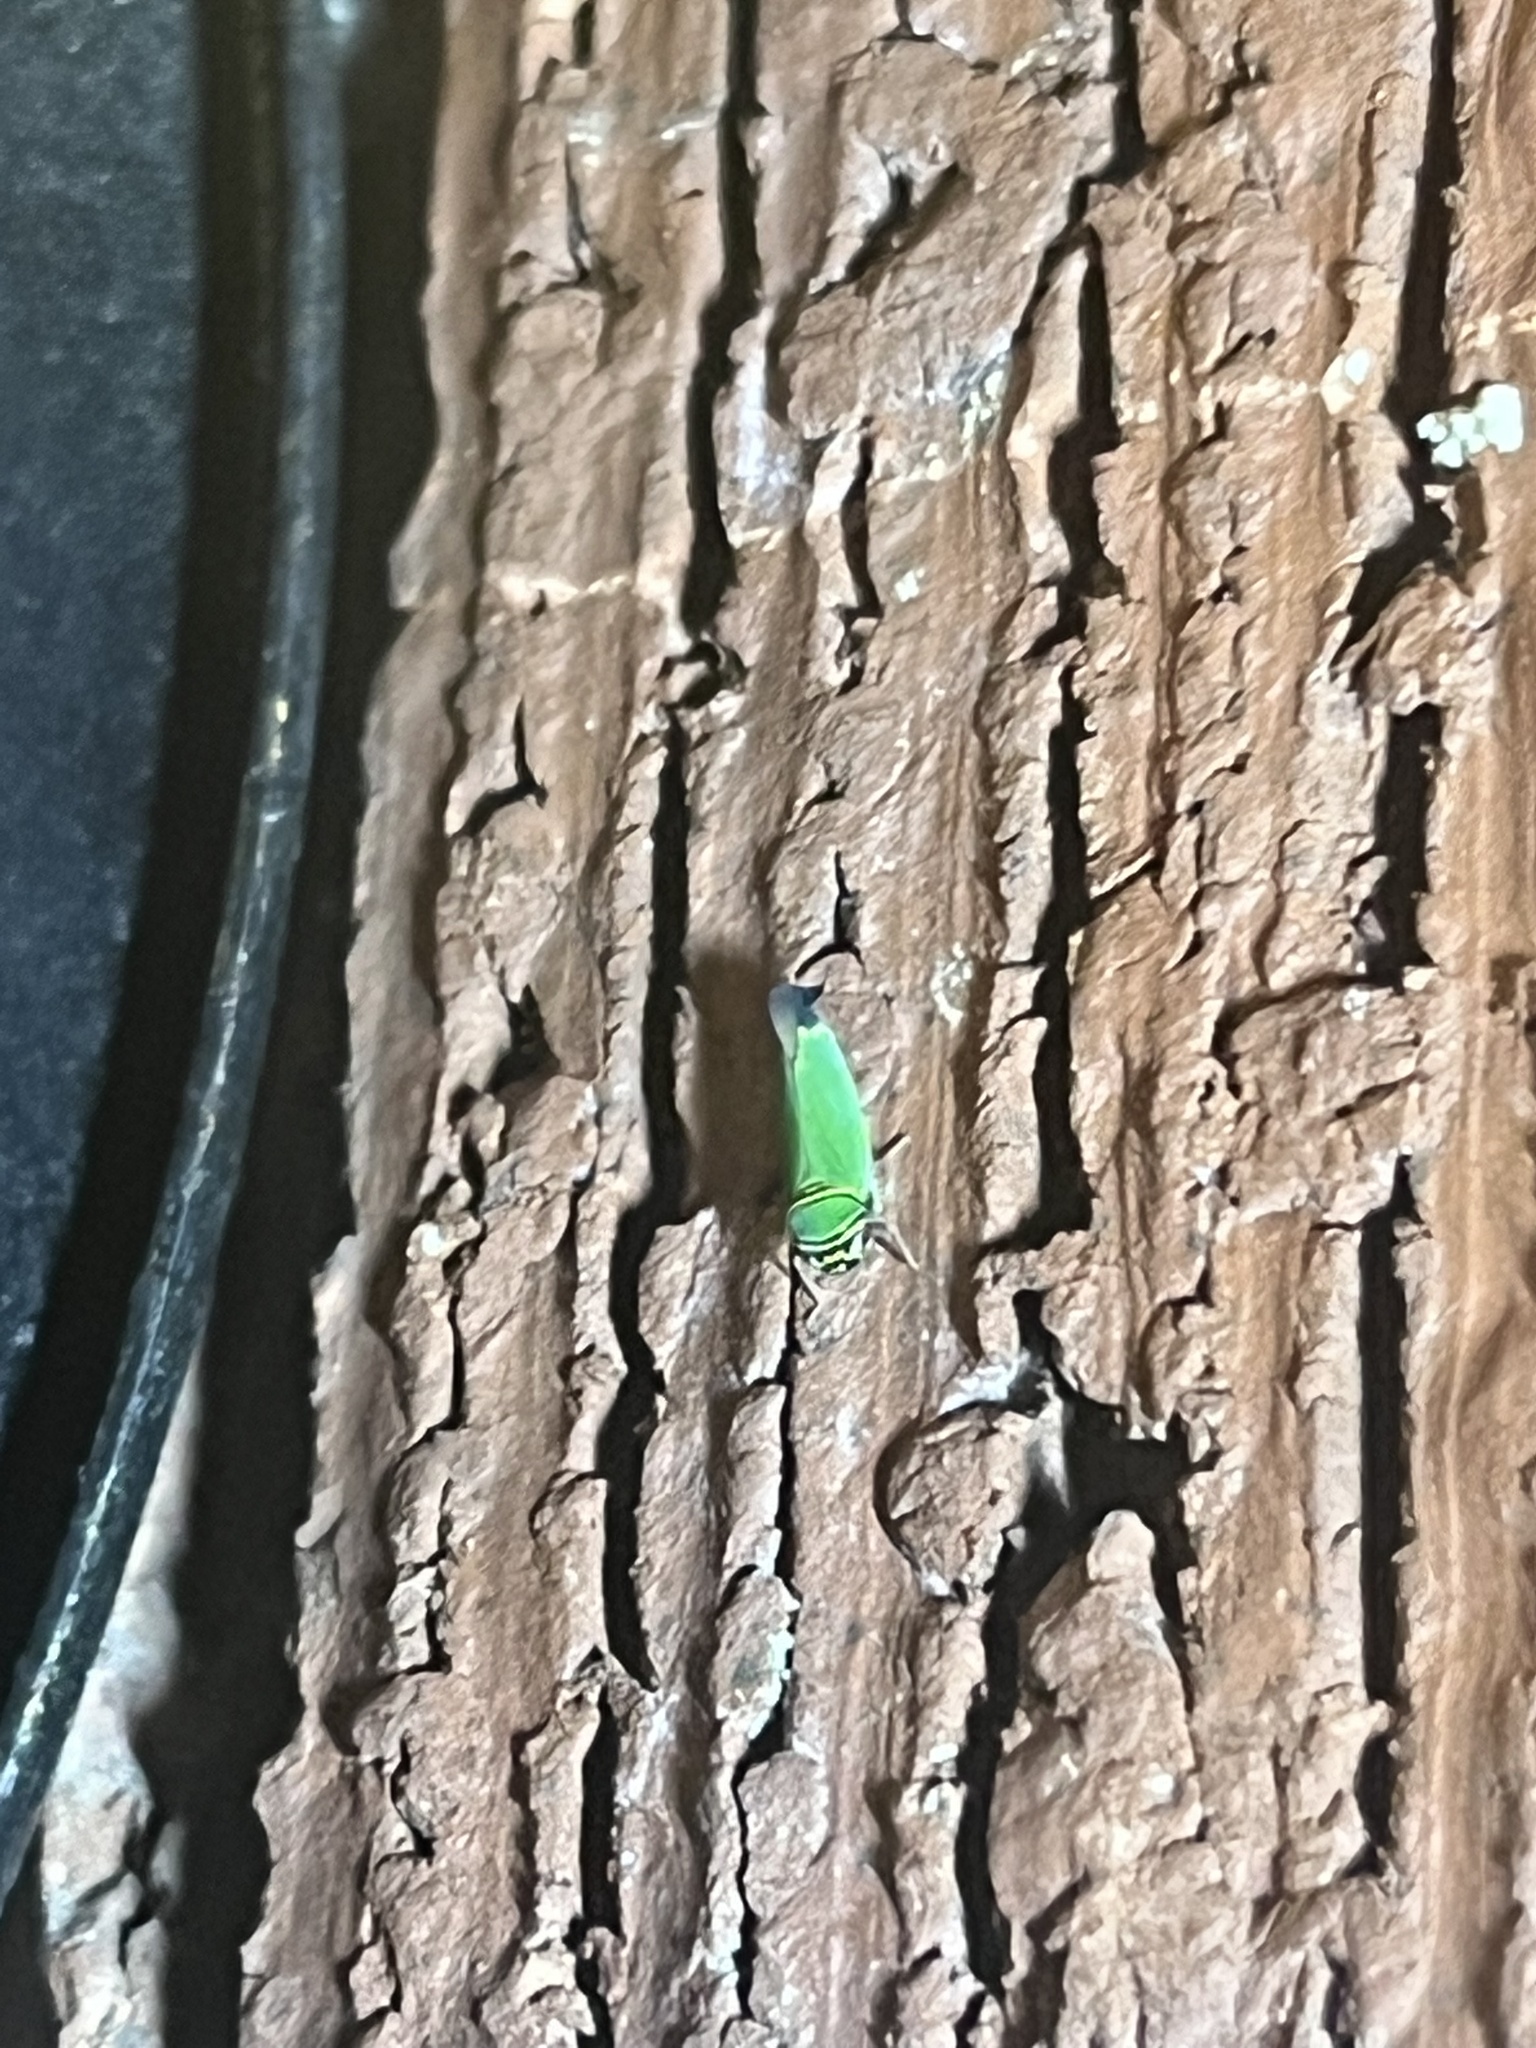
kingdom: Animalia
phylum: Arthropoda
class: Insecta
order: Hemiptera
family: Cicadellidae
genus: Tylozygus
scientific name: Tylozygus geometricus
